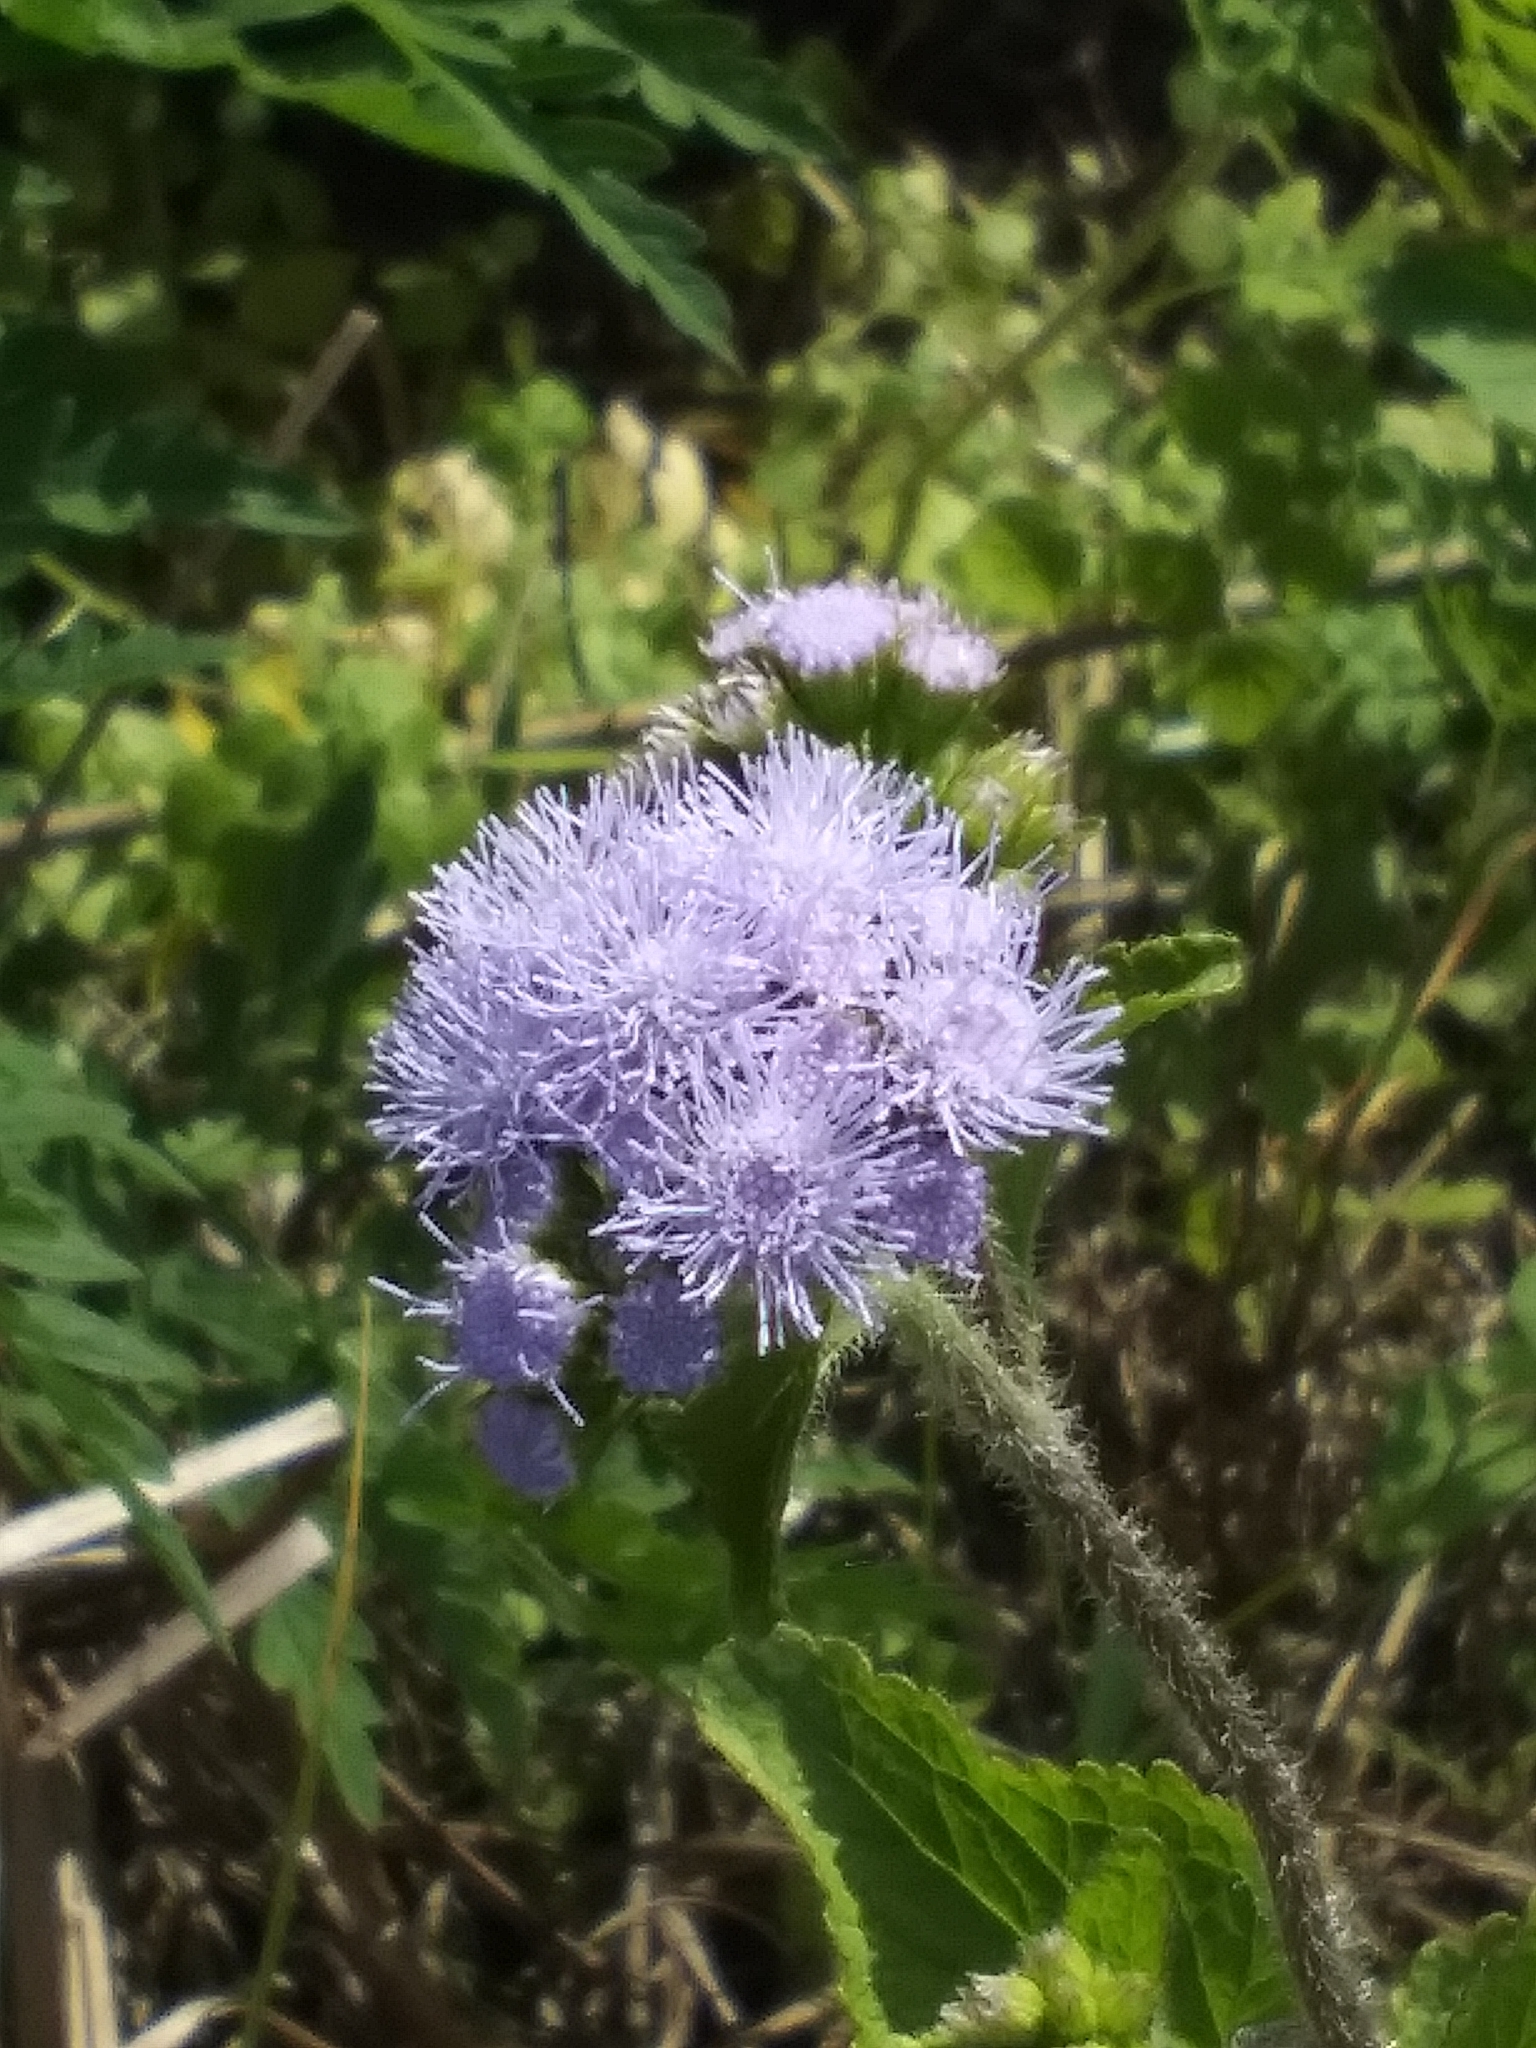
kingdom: Plantae
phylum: Tracheophyta
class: Magnoliopsida
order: Asterales
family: Asteraceae
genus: Ageratum
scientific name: Ageratum houstonianum
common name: Bluemink
